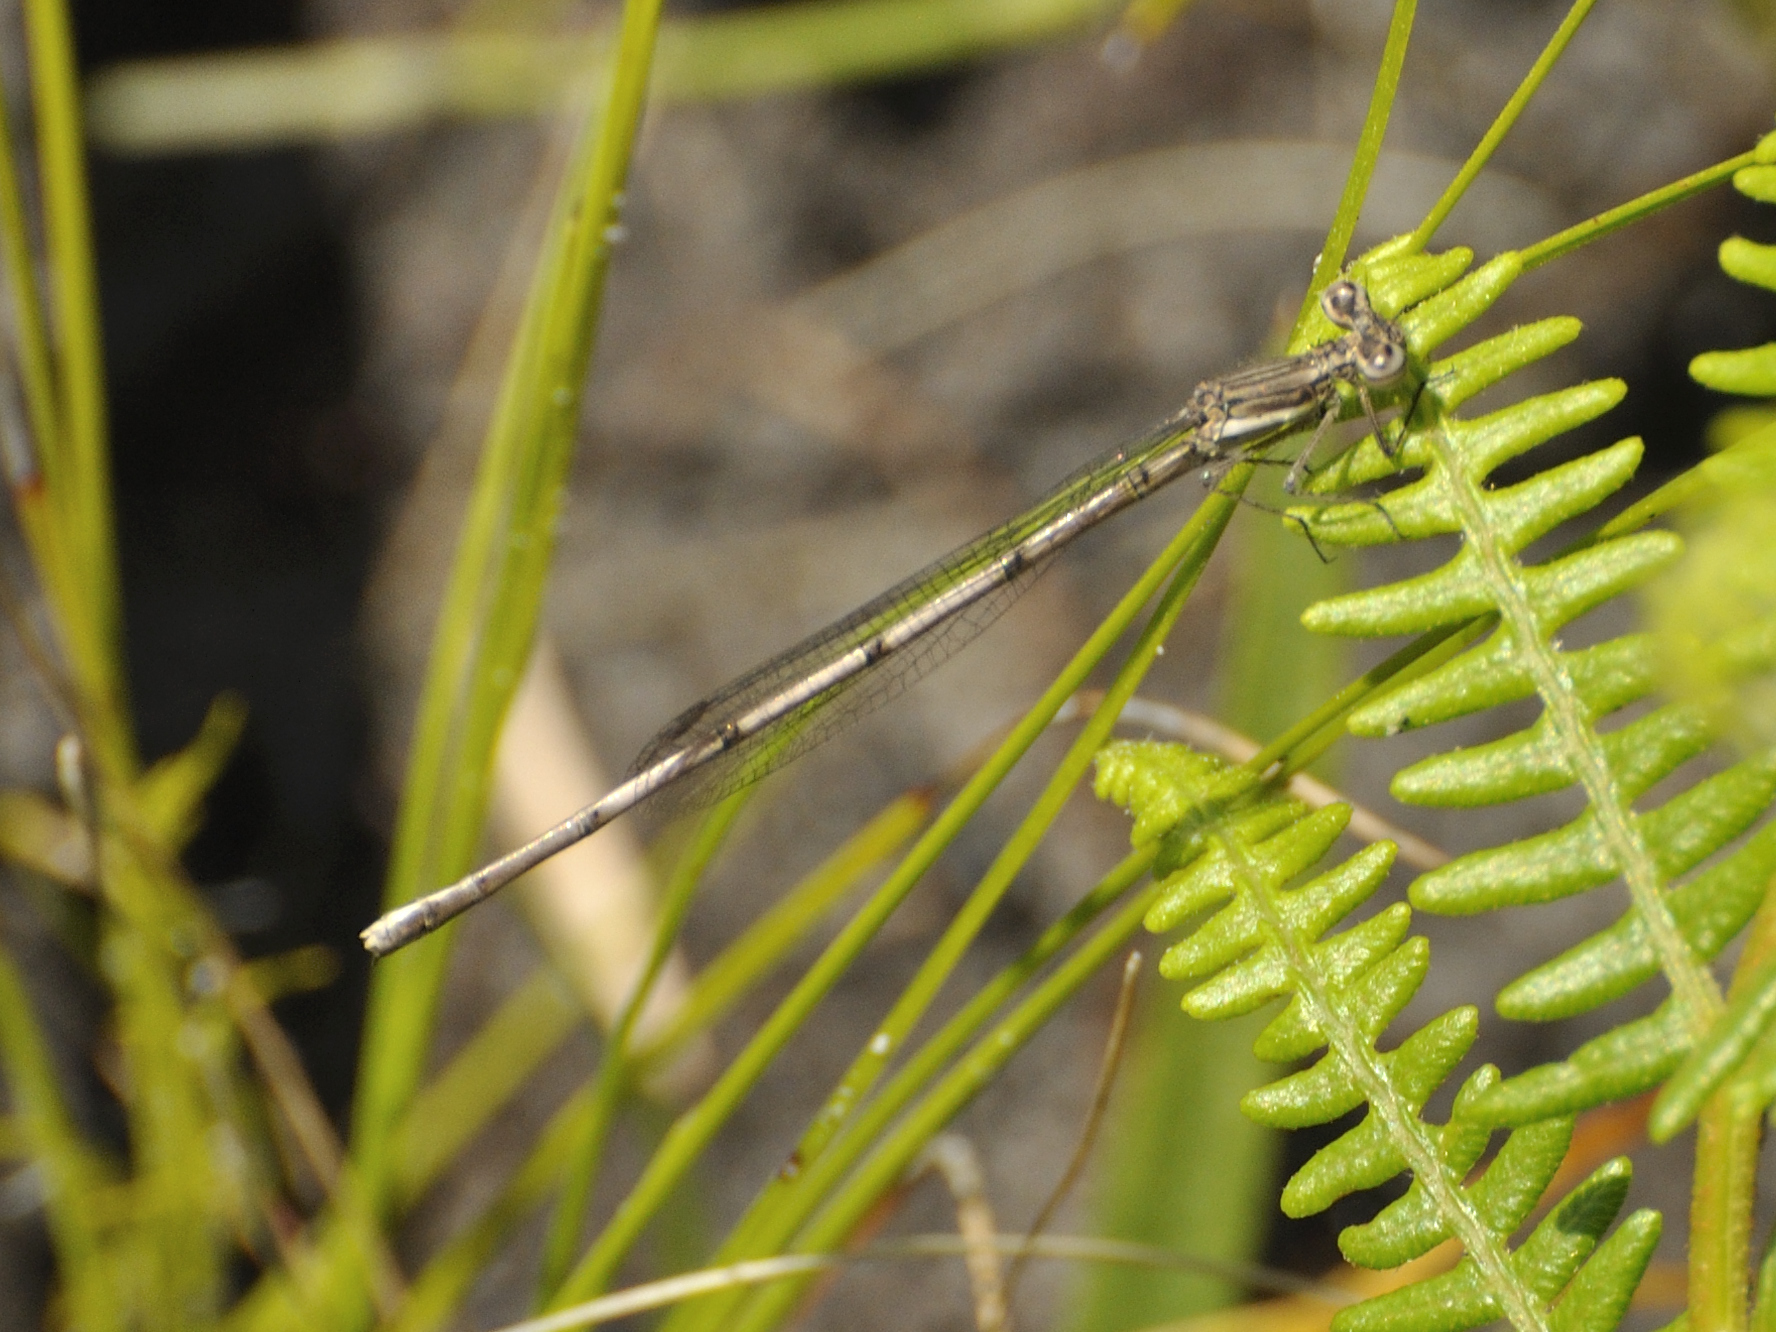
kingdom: Animalia
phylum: Arthropoda
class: Insecta
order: Odonata
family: Platycnemididae
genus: Elattoneura
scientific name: Elattoneura frenulata
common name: Sooty threadtail
